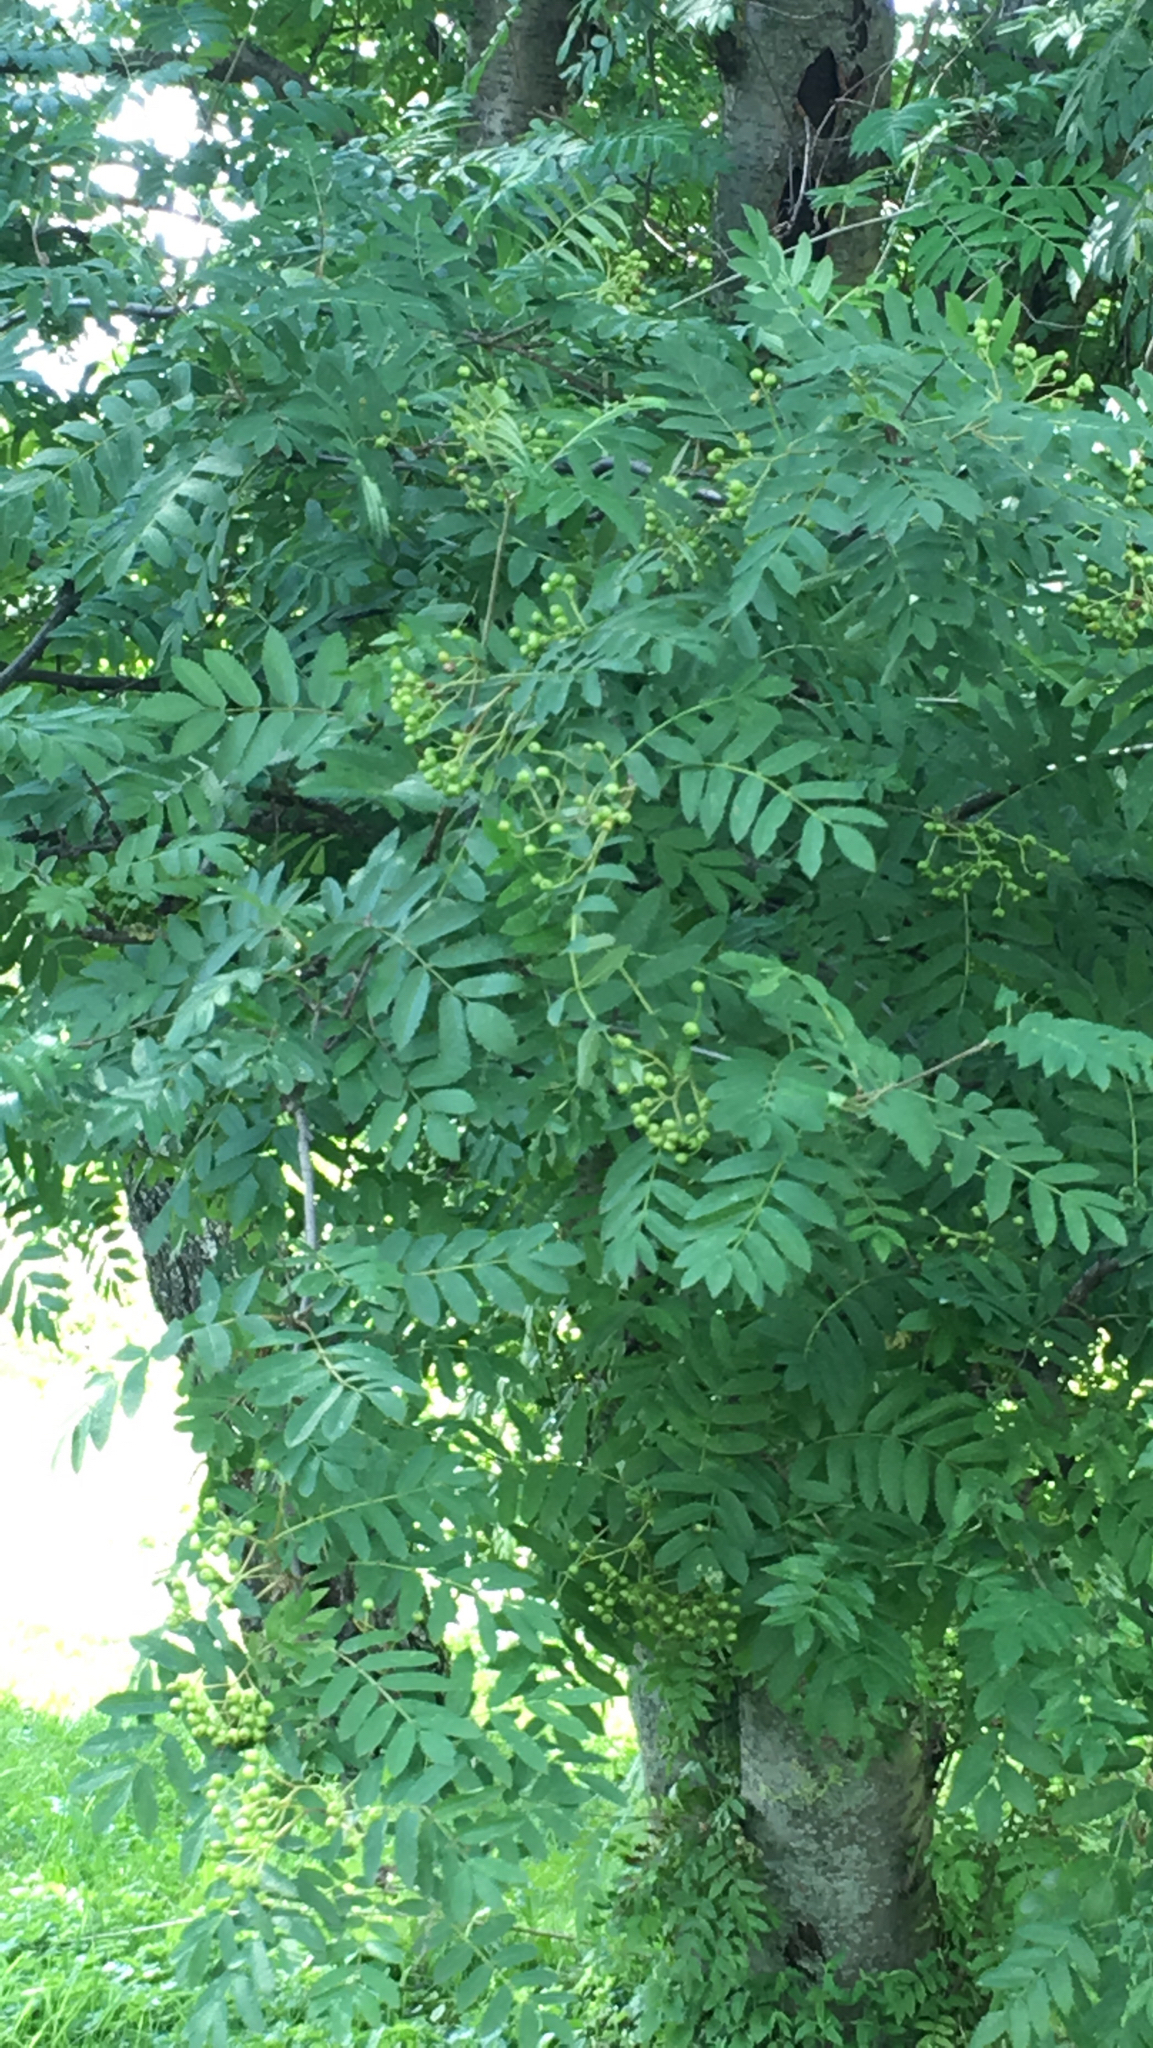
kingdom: Plantae
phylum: Tracheophyta
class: Magnoliopsida
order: Rosales
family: Rosaceae
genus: Sorbus
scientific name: Sorbus aucuparia
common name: Rowan
